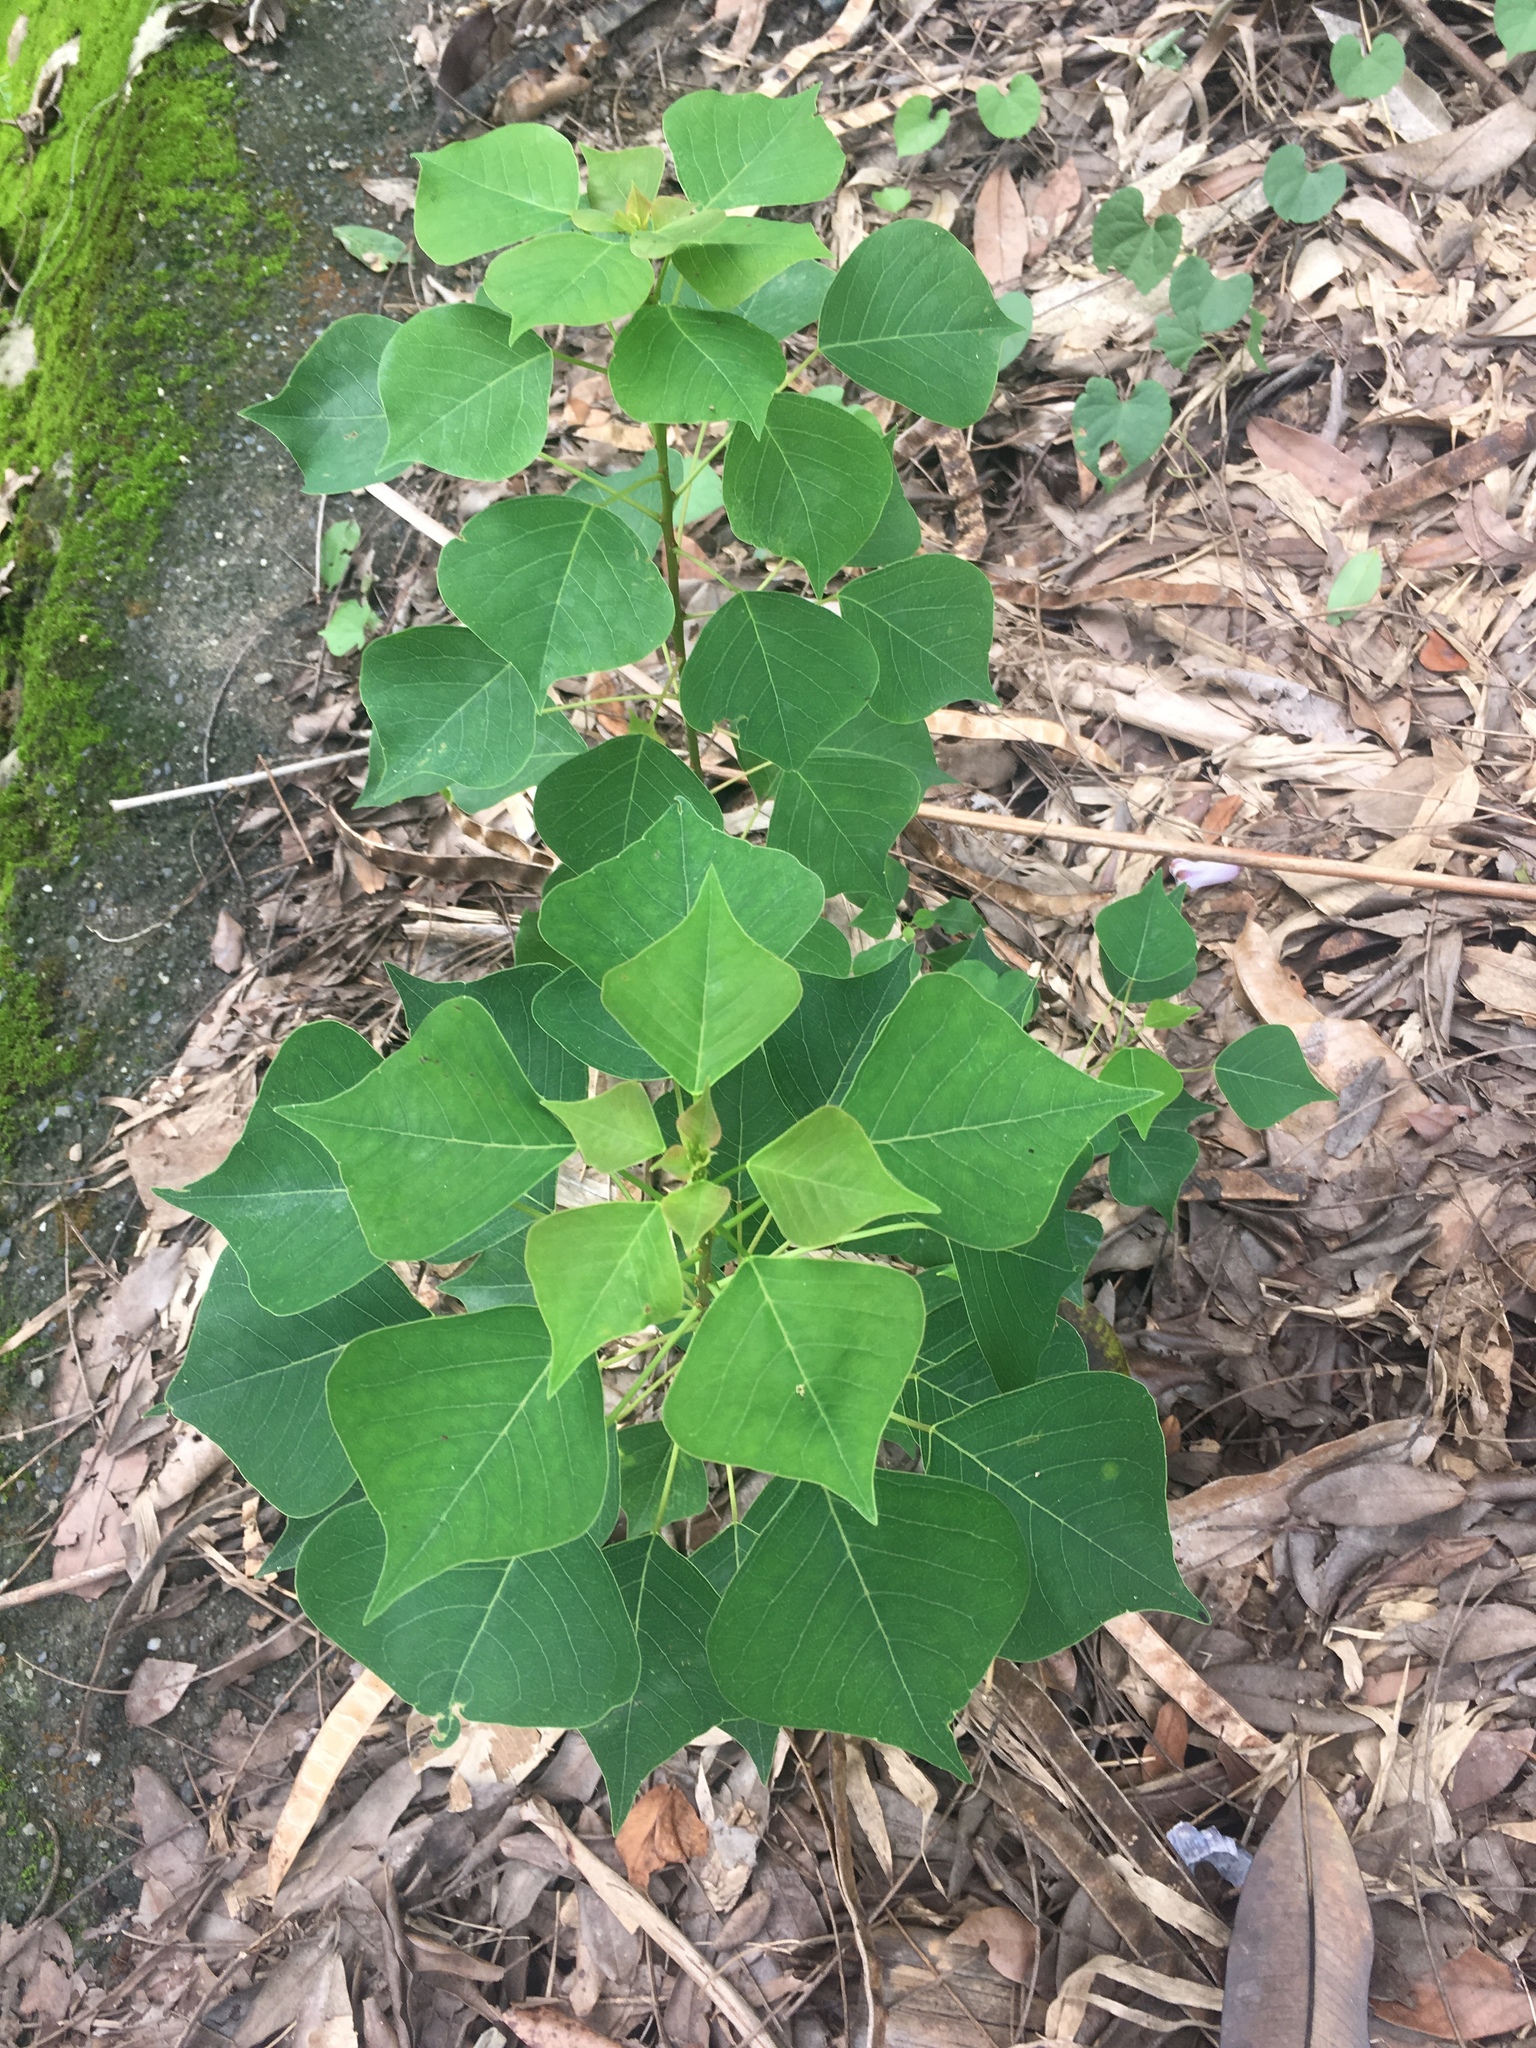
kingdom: Plantae
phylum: Tracheophyta
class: Magnoliopsida
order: Malpighiales
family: Euphorbiaceae
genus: Triadica
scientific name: Triadica sebifera
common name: Chinese tallow
